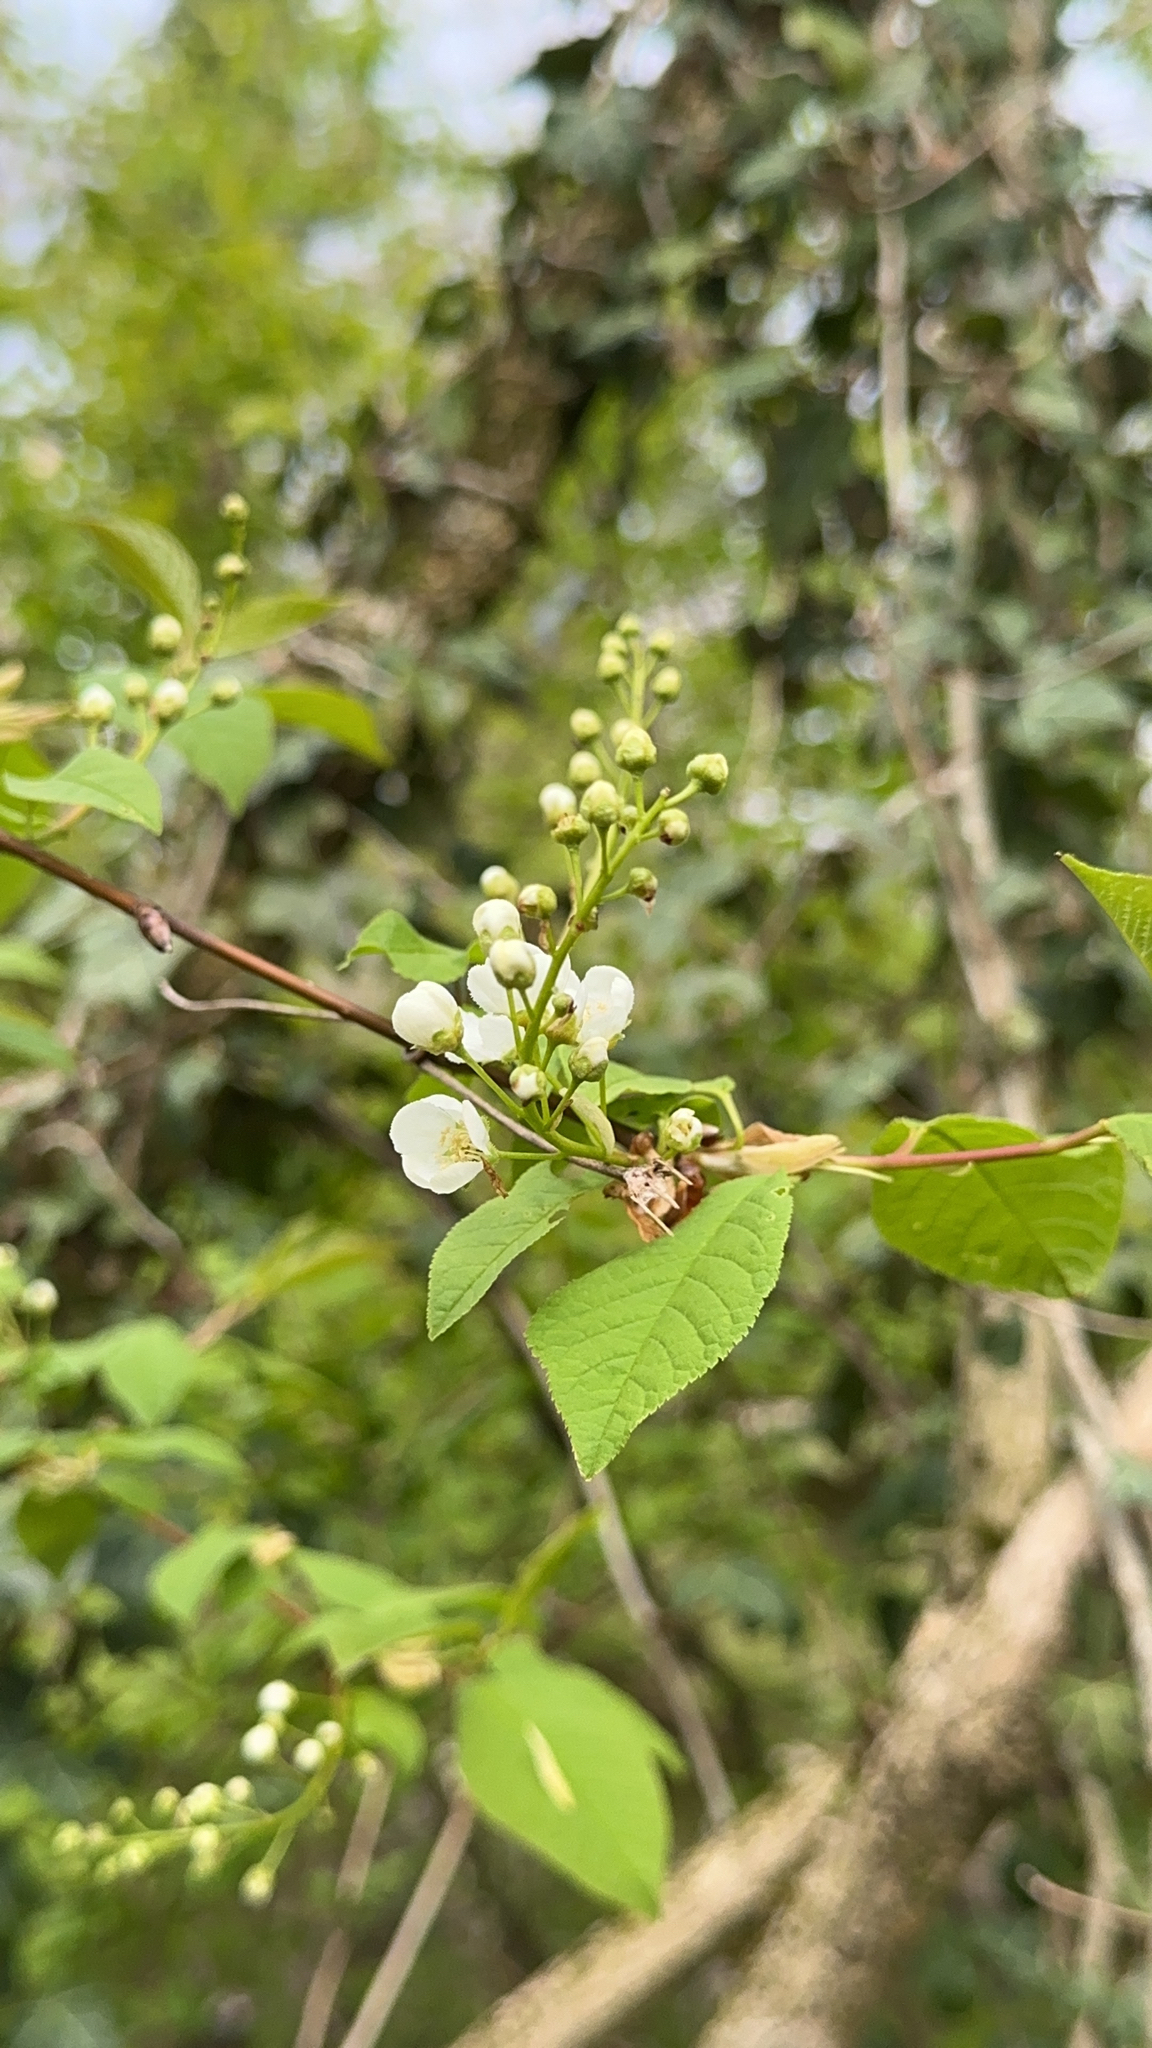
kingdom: Plantae
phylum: Tracheophyta
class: Magnoliopsida
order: Rosales
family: Rosaceae
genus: Prunus
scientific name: Prunus padus
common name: Bird cherry
